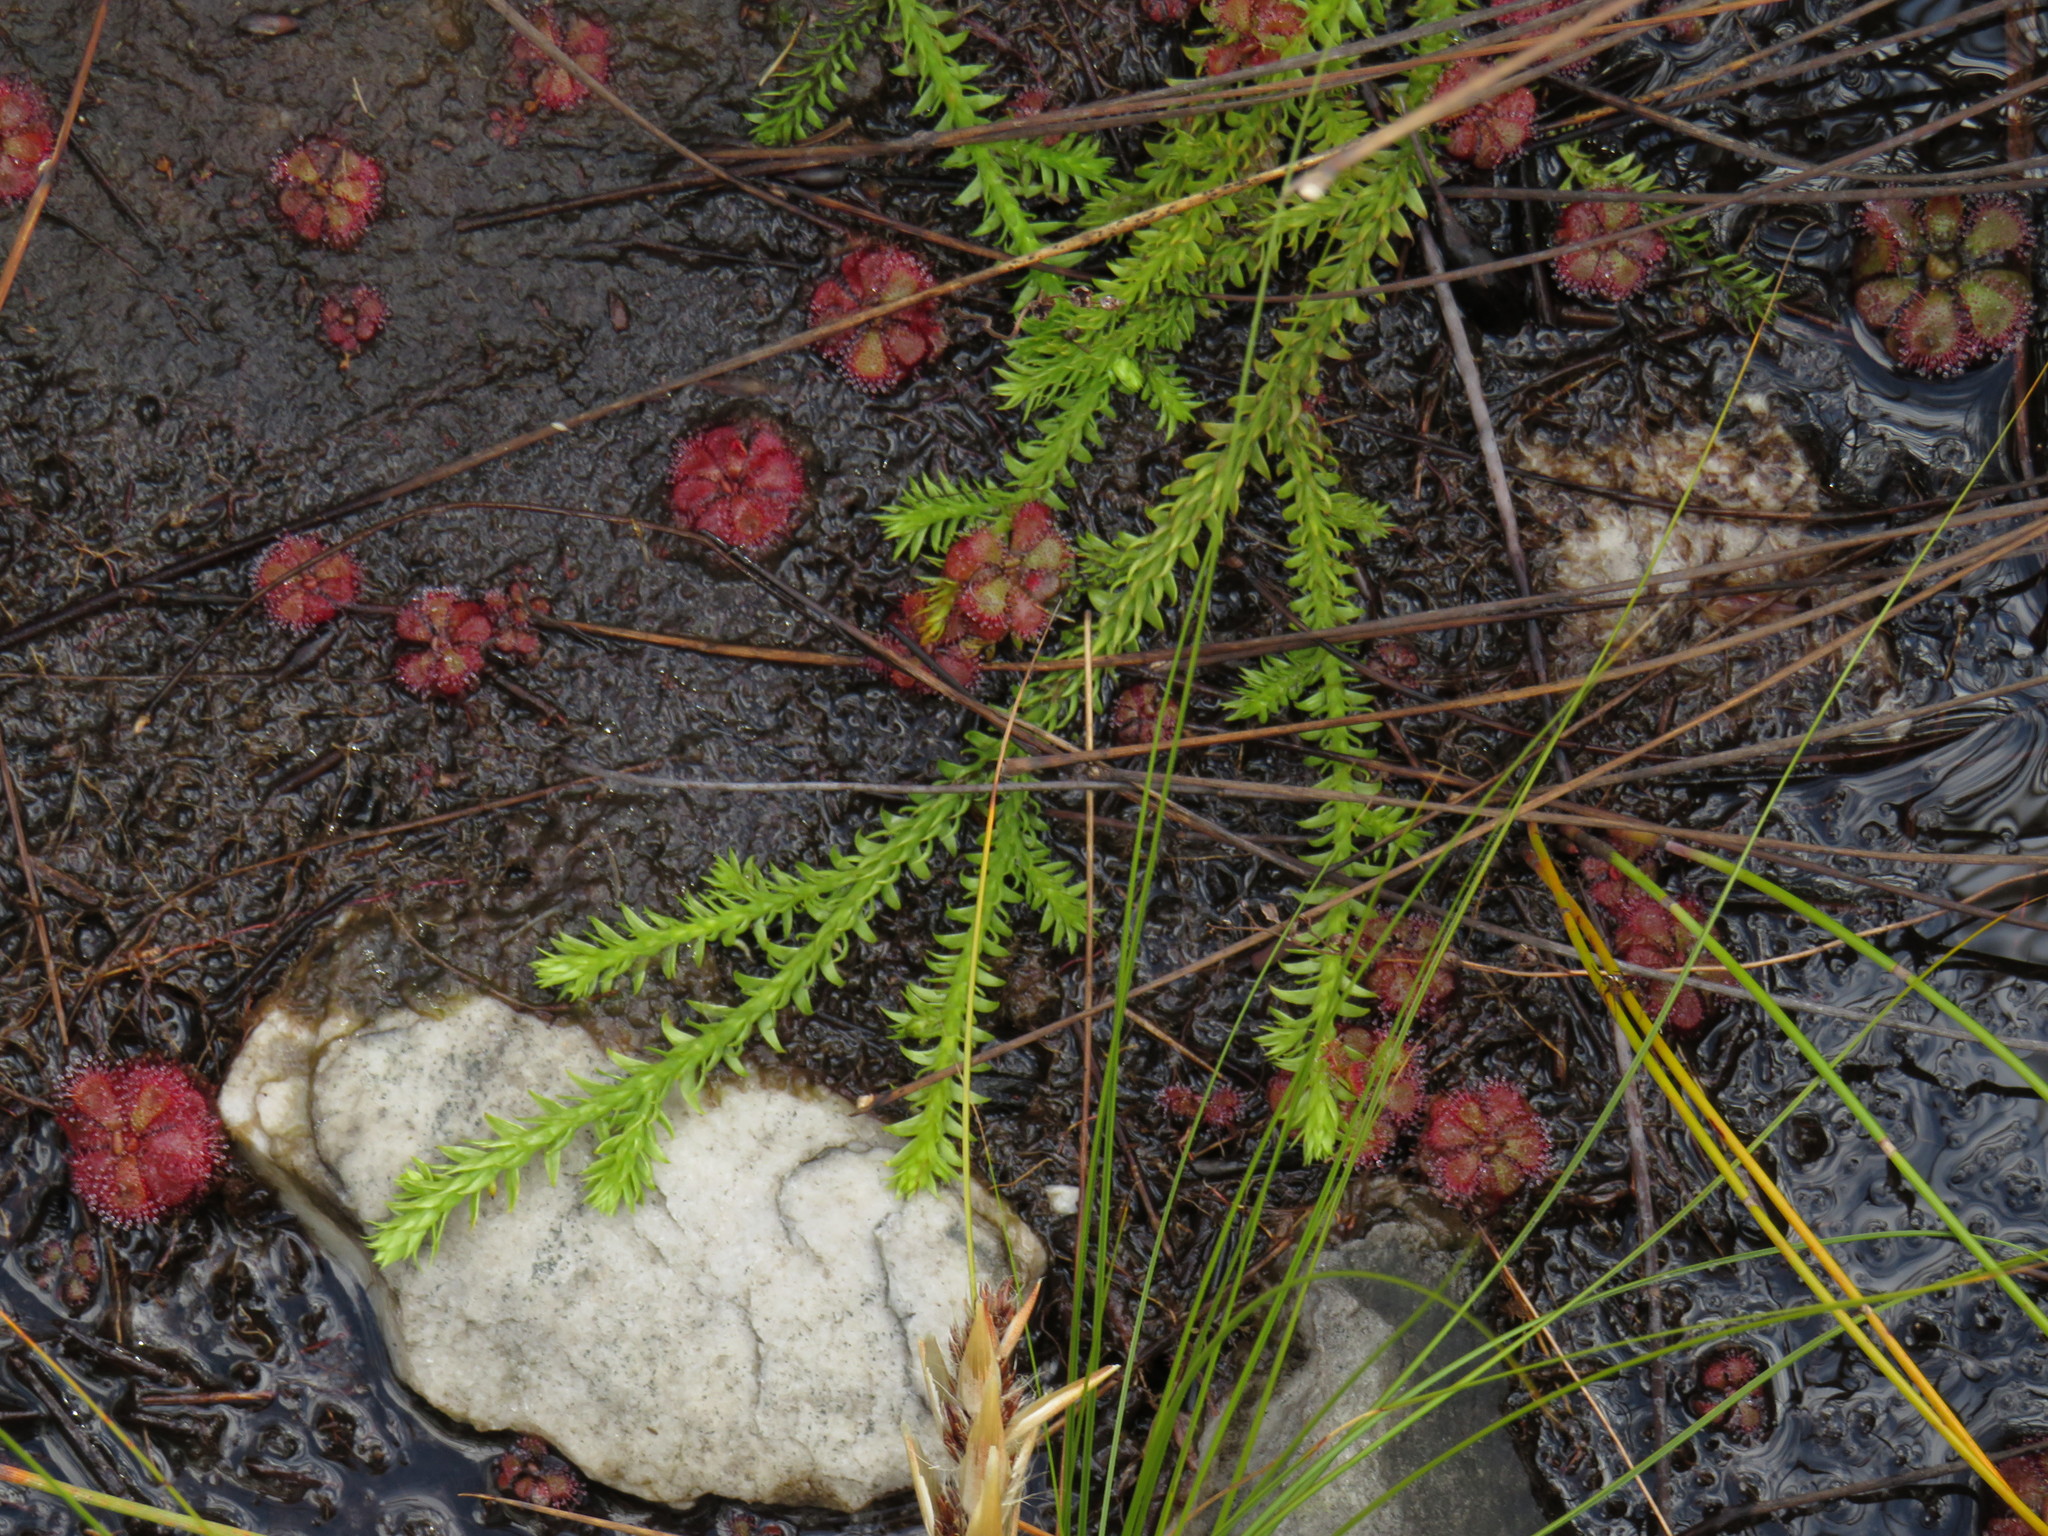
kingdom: Plantae
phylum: Tracheophyta
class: Magnoliopsida
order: Caryophyllales
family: Droseraceae
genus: Drosera
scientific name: Drosera cuneifolia
